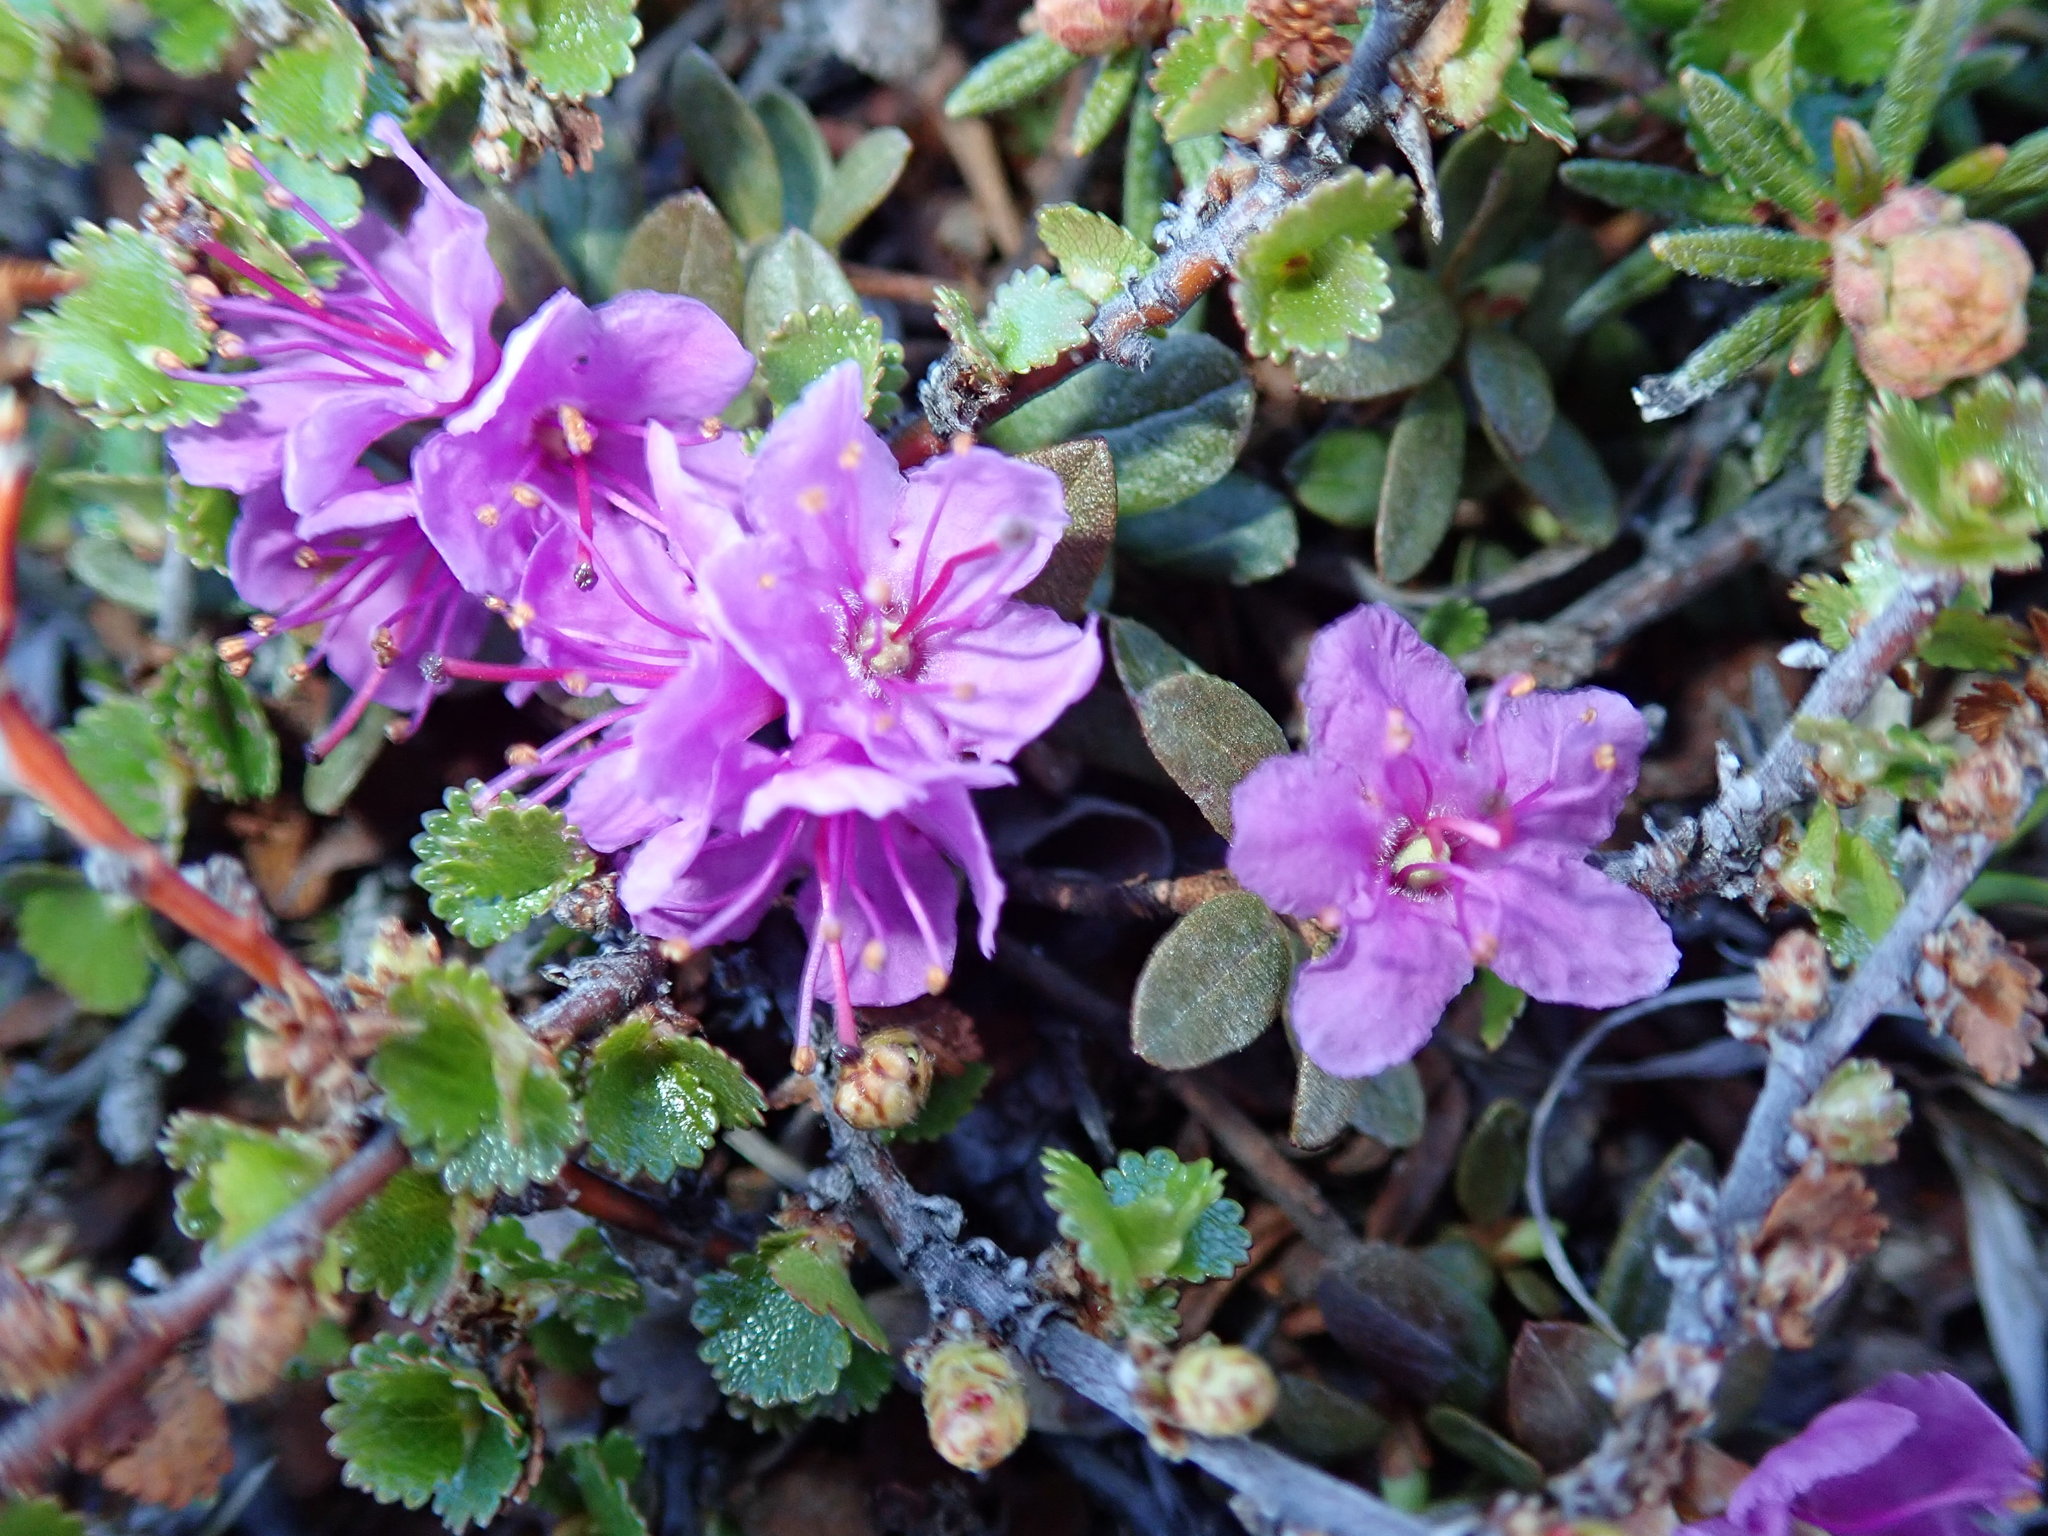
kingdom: Plantae
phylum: Tracheophyta
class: Magnoliopsida
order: Ericales
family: Ericaceae
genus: Rhododendron
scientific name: Rhododendron lapponicum
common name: Lapland rhododendron
